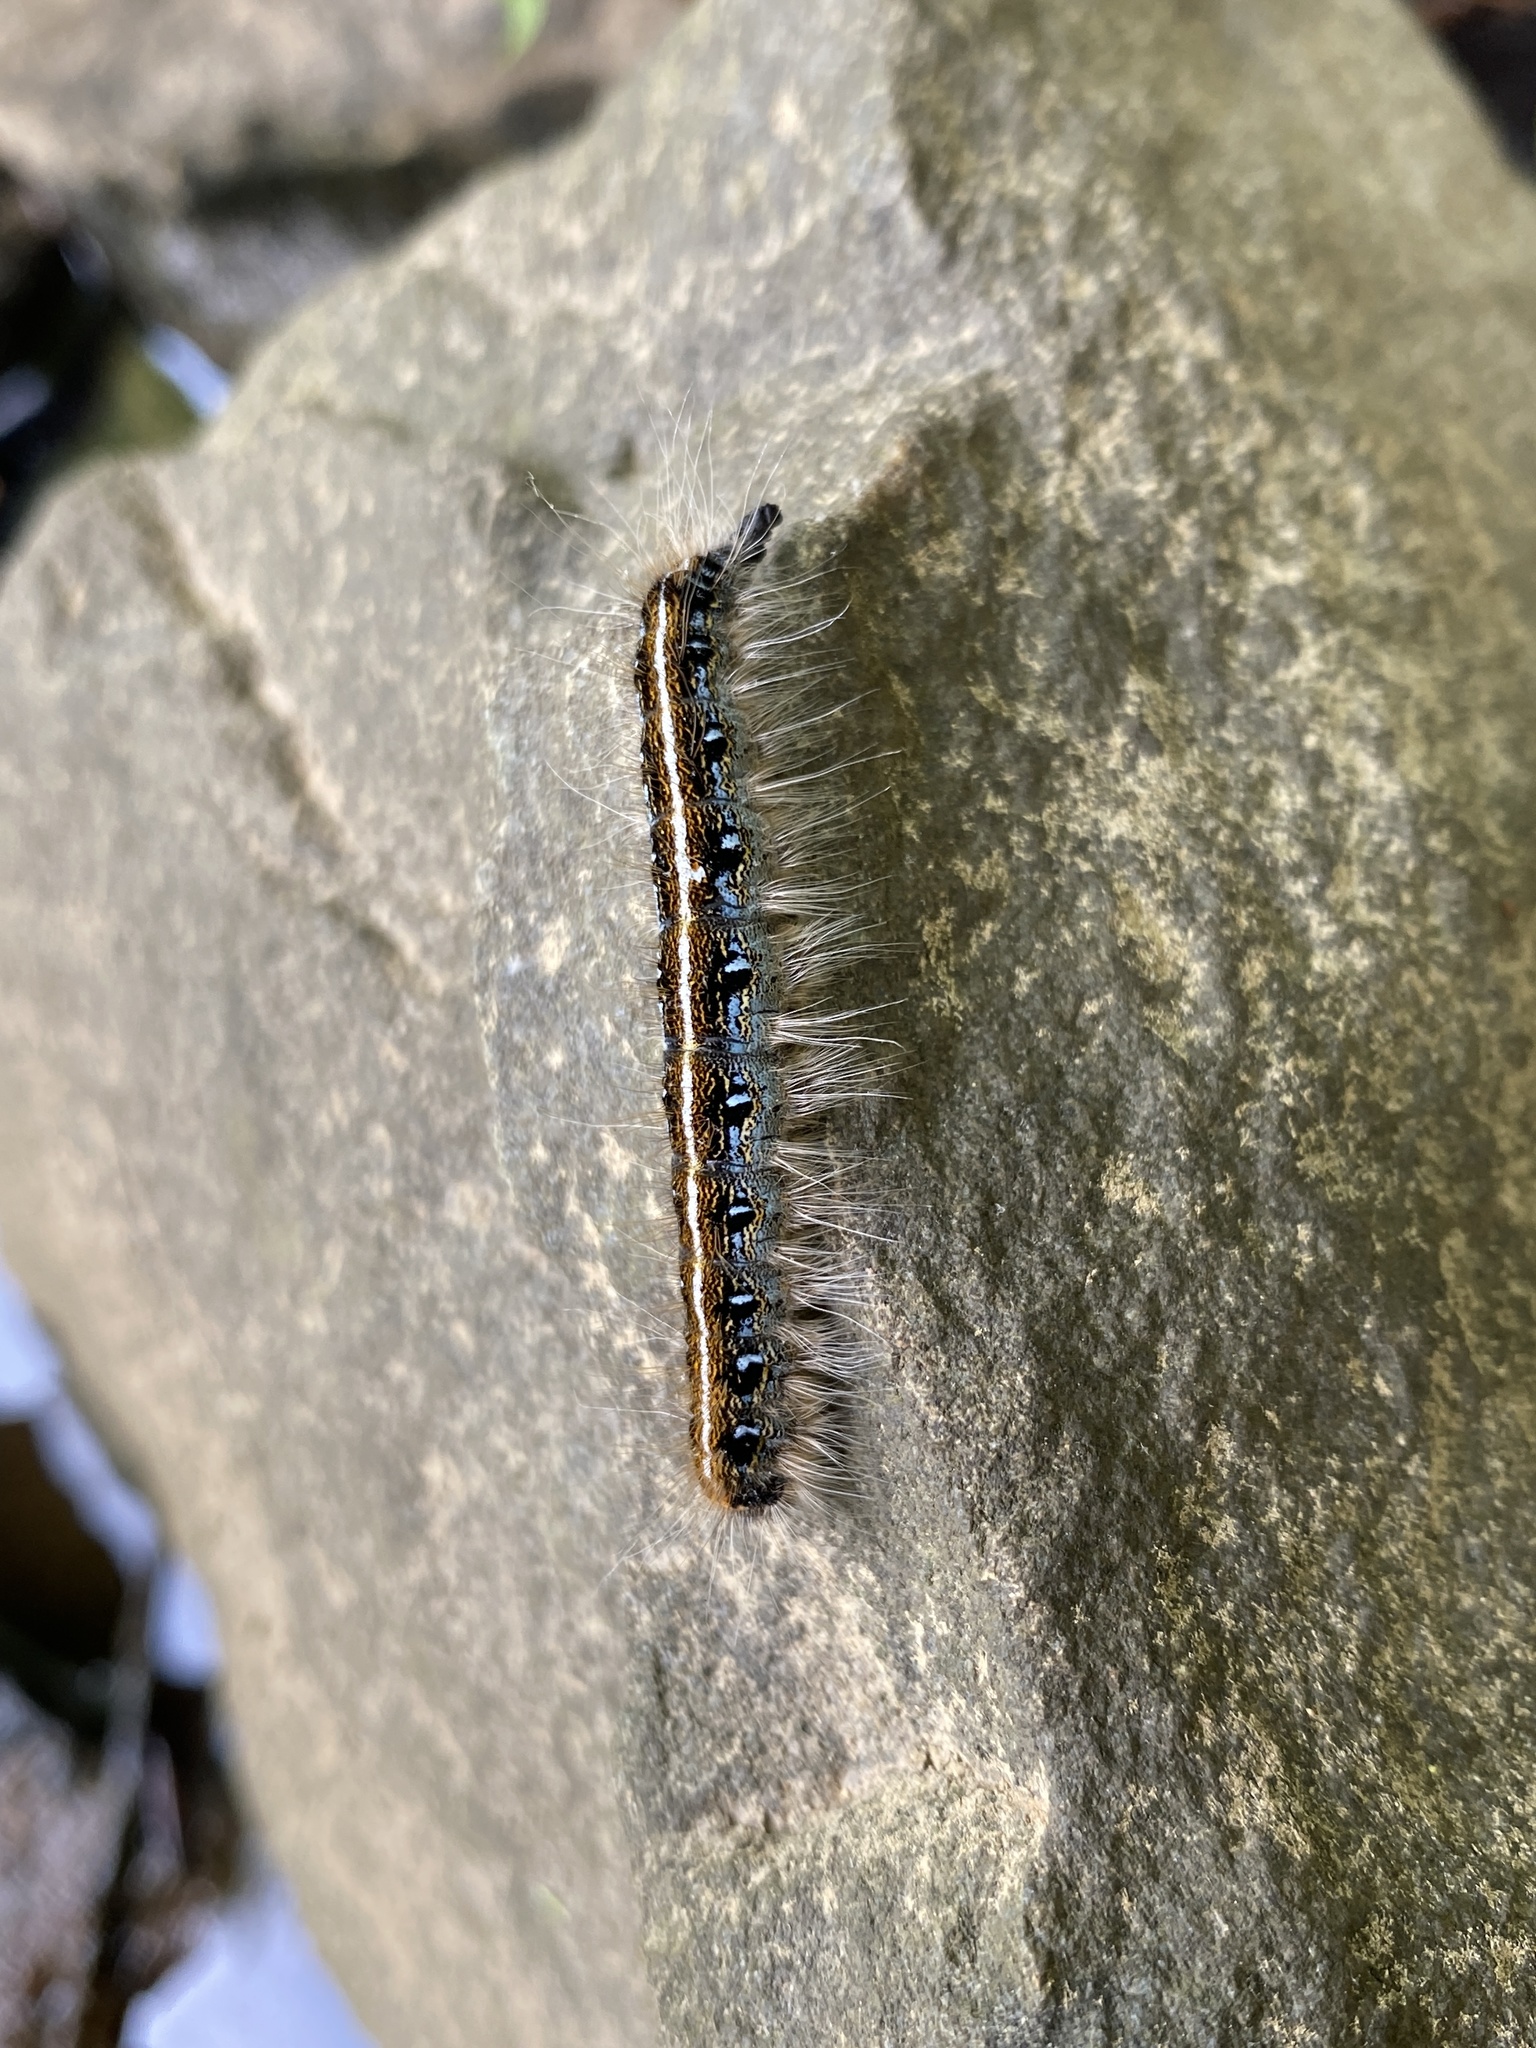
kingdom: Animalia
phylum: Arthropoda
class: Insecta
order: Lepidoptera
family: Lasiocampidae
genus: Malacosoma
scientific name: Malacosoma americana
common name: Eastern tent caterpillar moth
